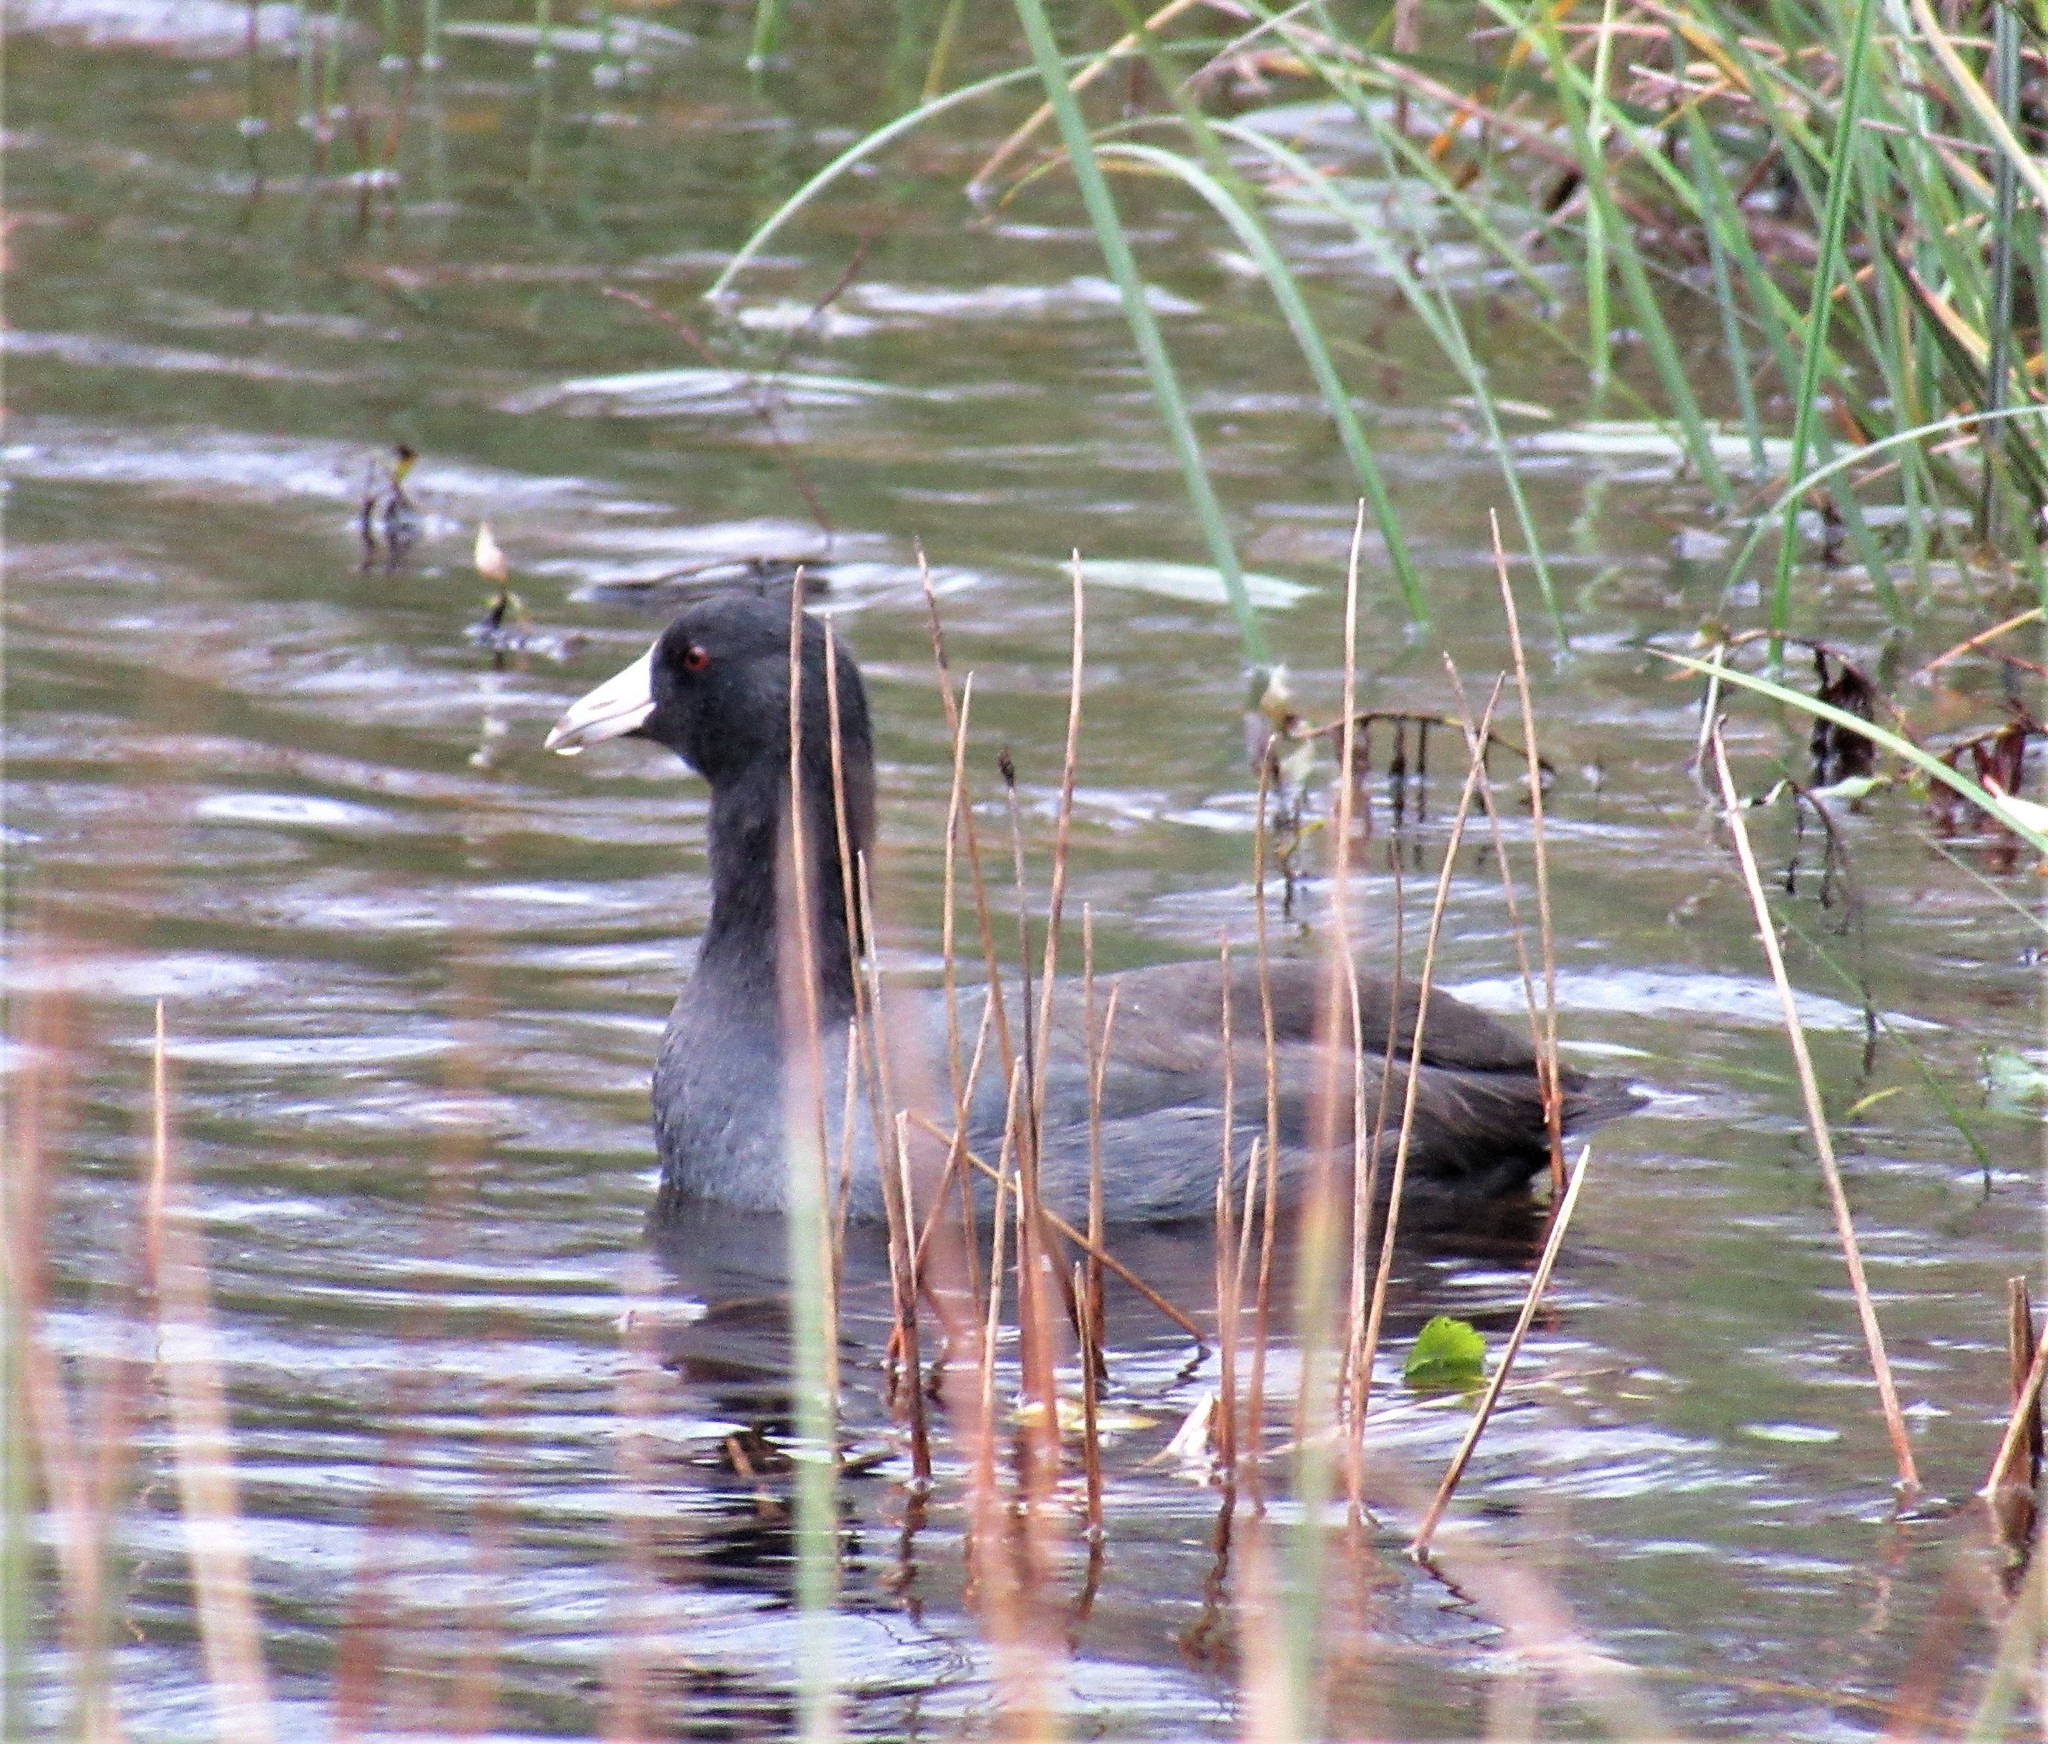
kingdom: Animalia
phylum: Chordata
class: Aves
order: Gruiformes
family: Rallidae
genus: Fulica
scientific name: Fulica americana
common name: American coot
